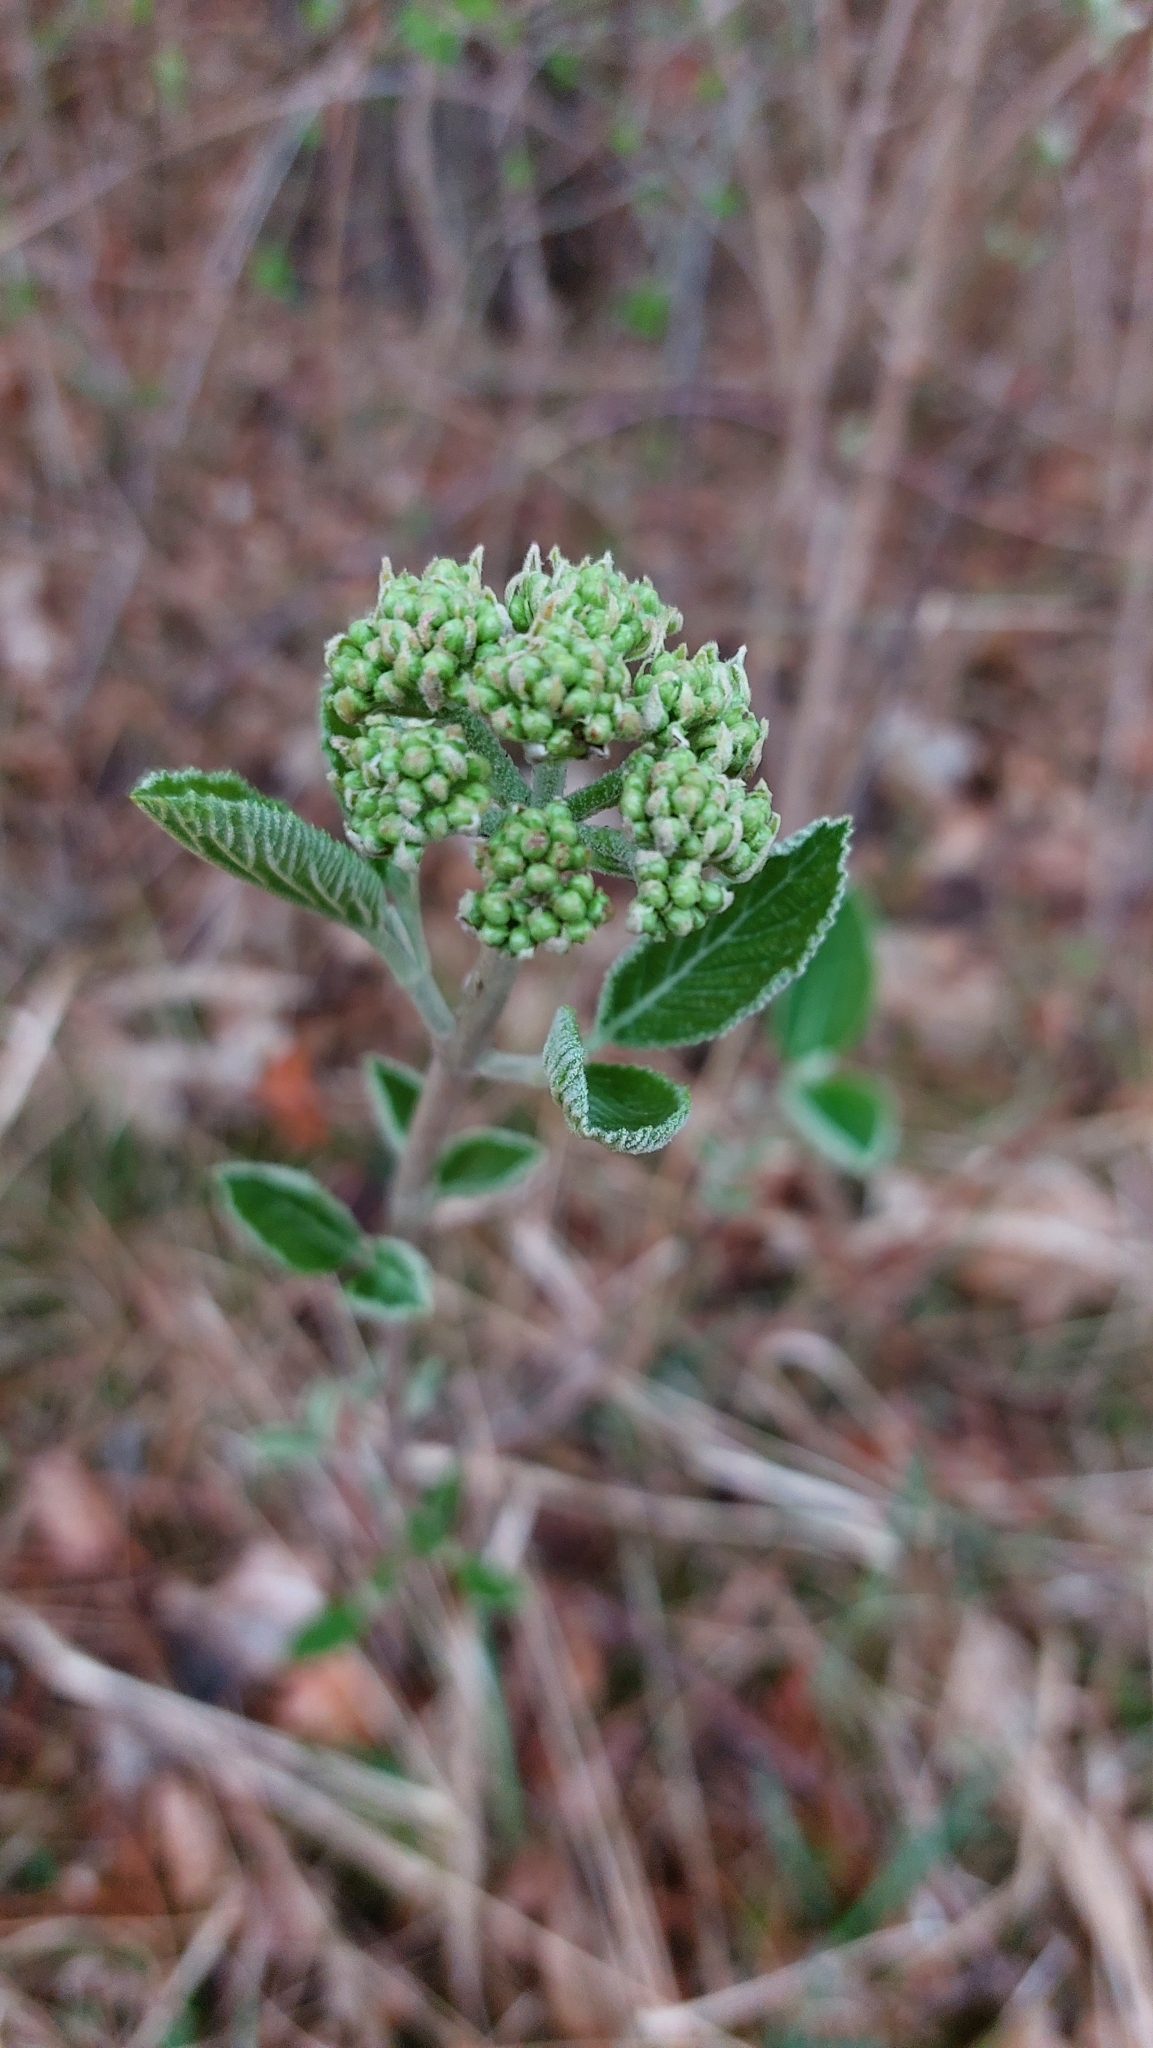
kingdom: Plantae
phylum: Tracheophyta
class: Magnoliopsida
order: Dipsacales
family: Viburnaceae
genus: Viburnum
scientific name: Viburnum lantana
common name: Wayfaring tree
